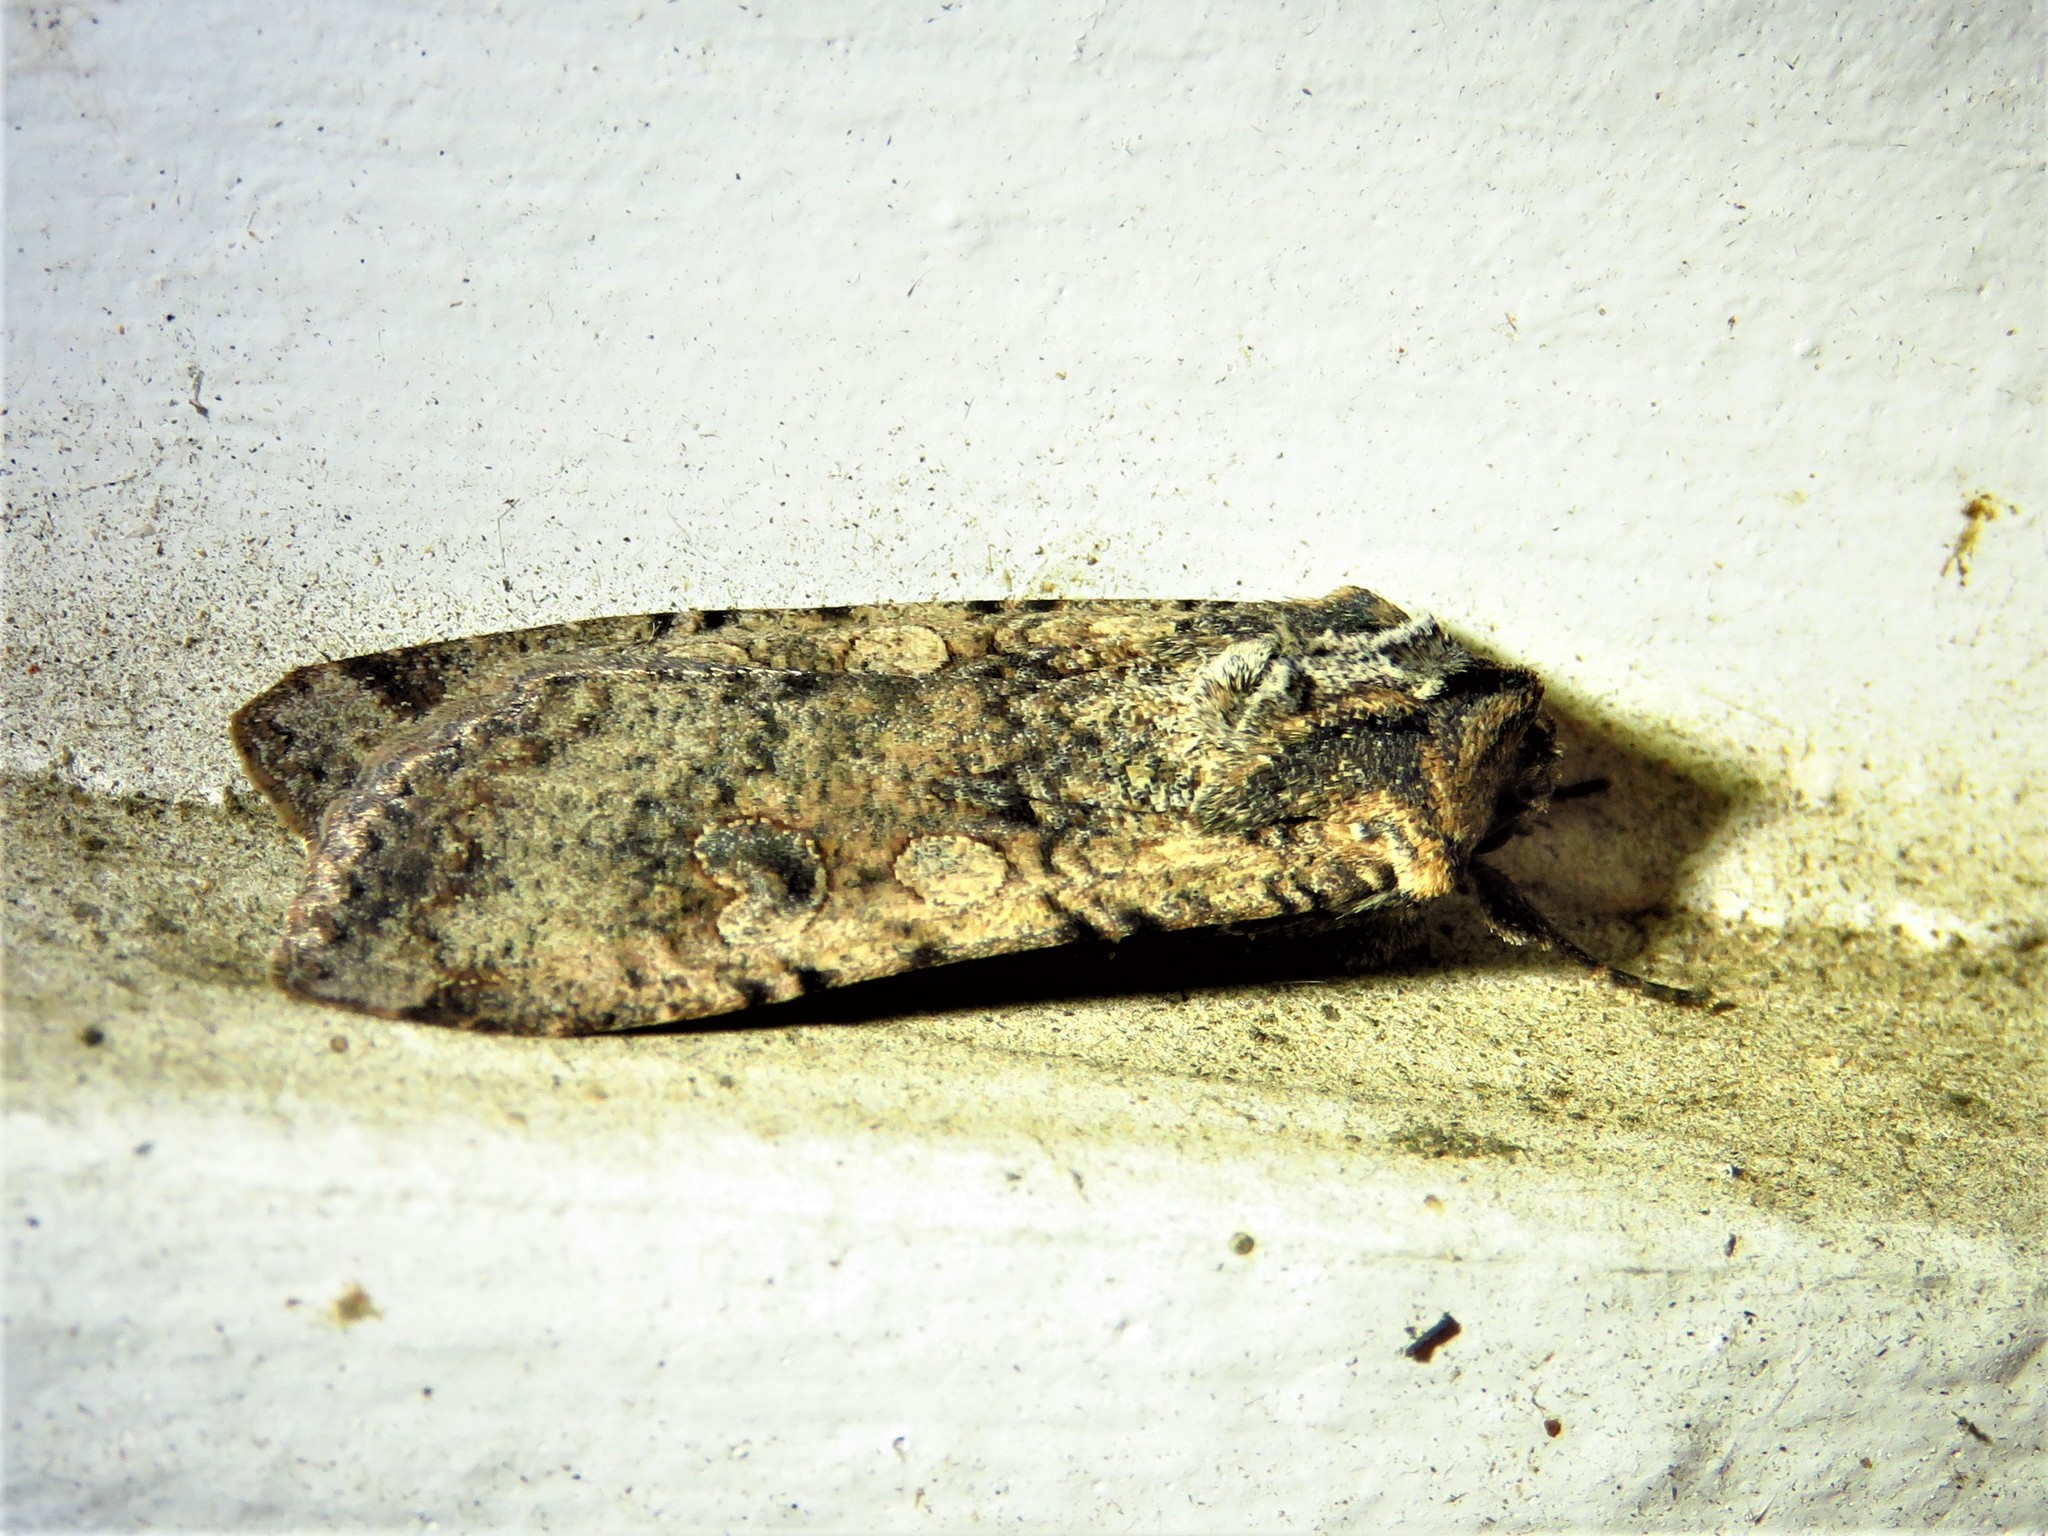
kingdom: Animalia
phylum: Arthropoda
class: Insecta
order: Lepidoptera
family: Noctuidae
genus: Peridroma
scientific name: Peridroma saucia
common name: Pearly underwing
